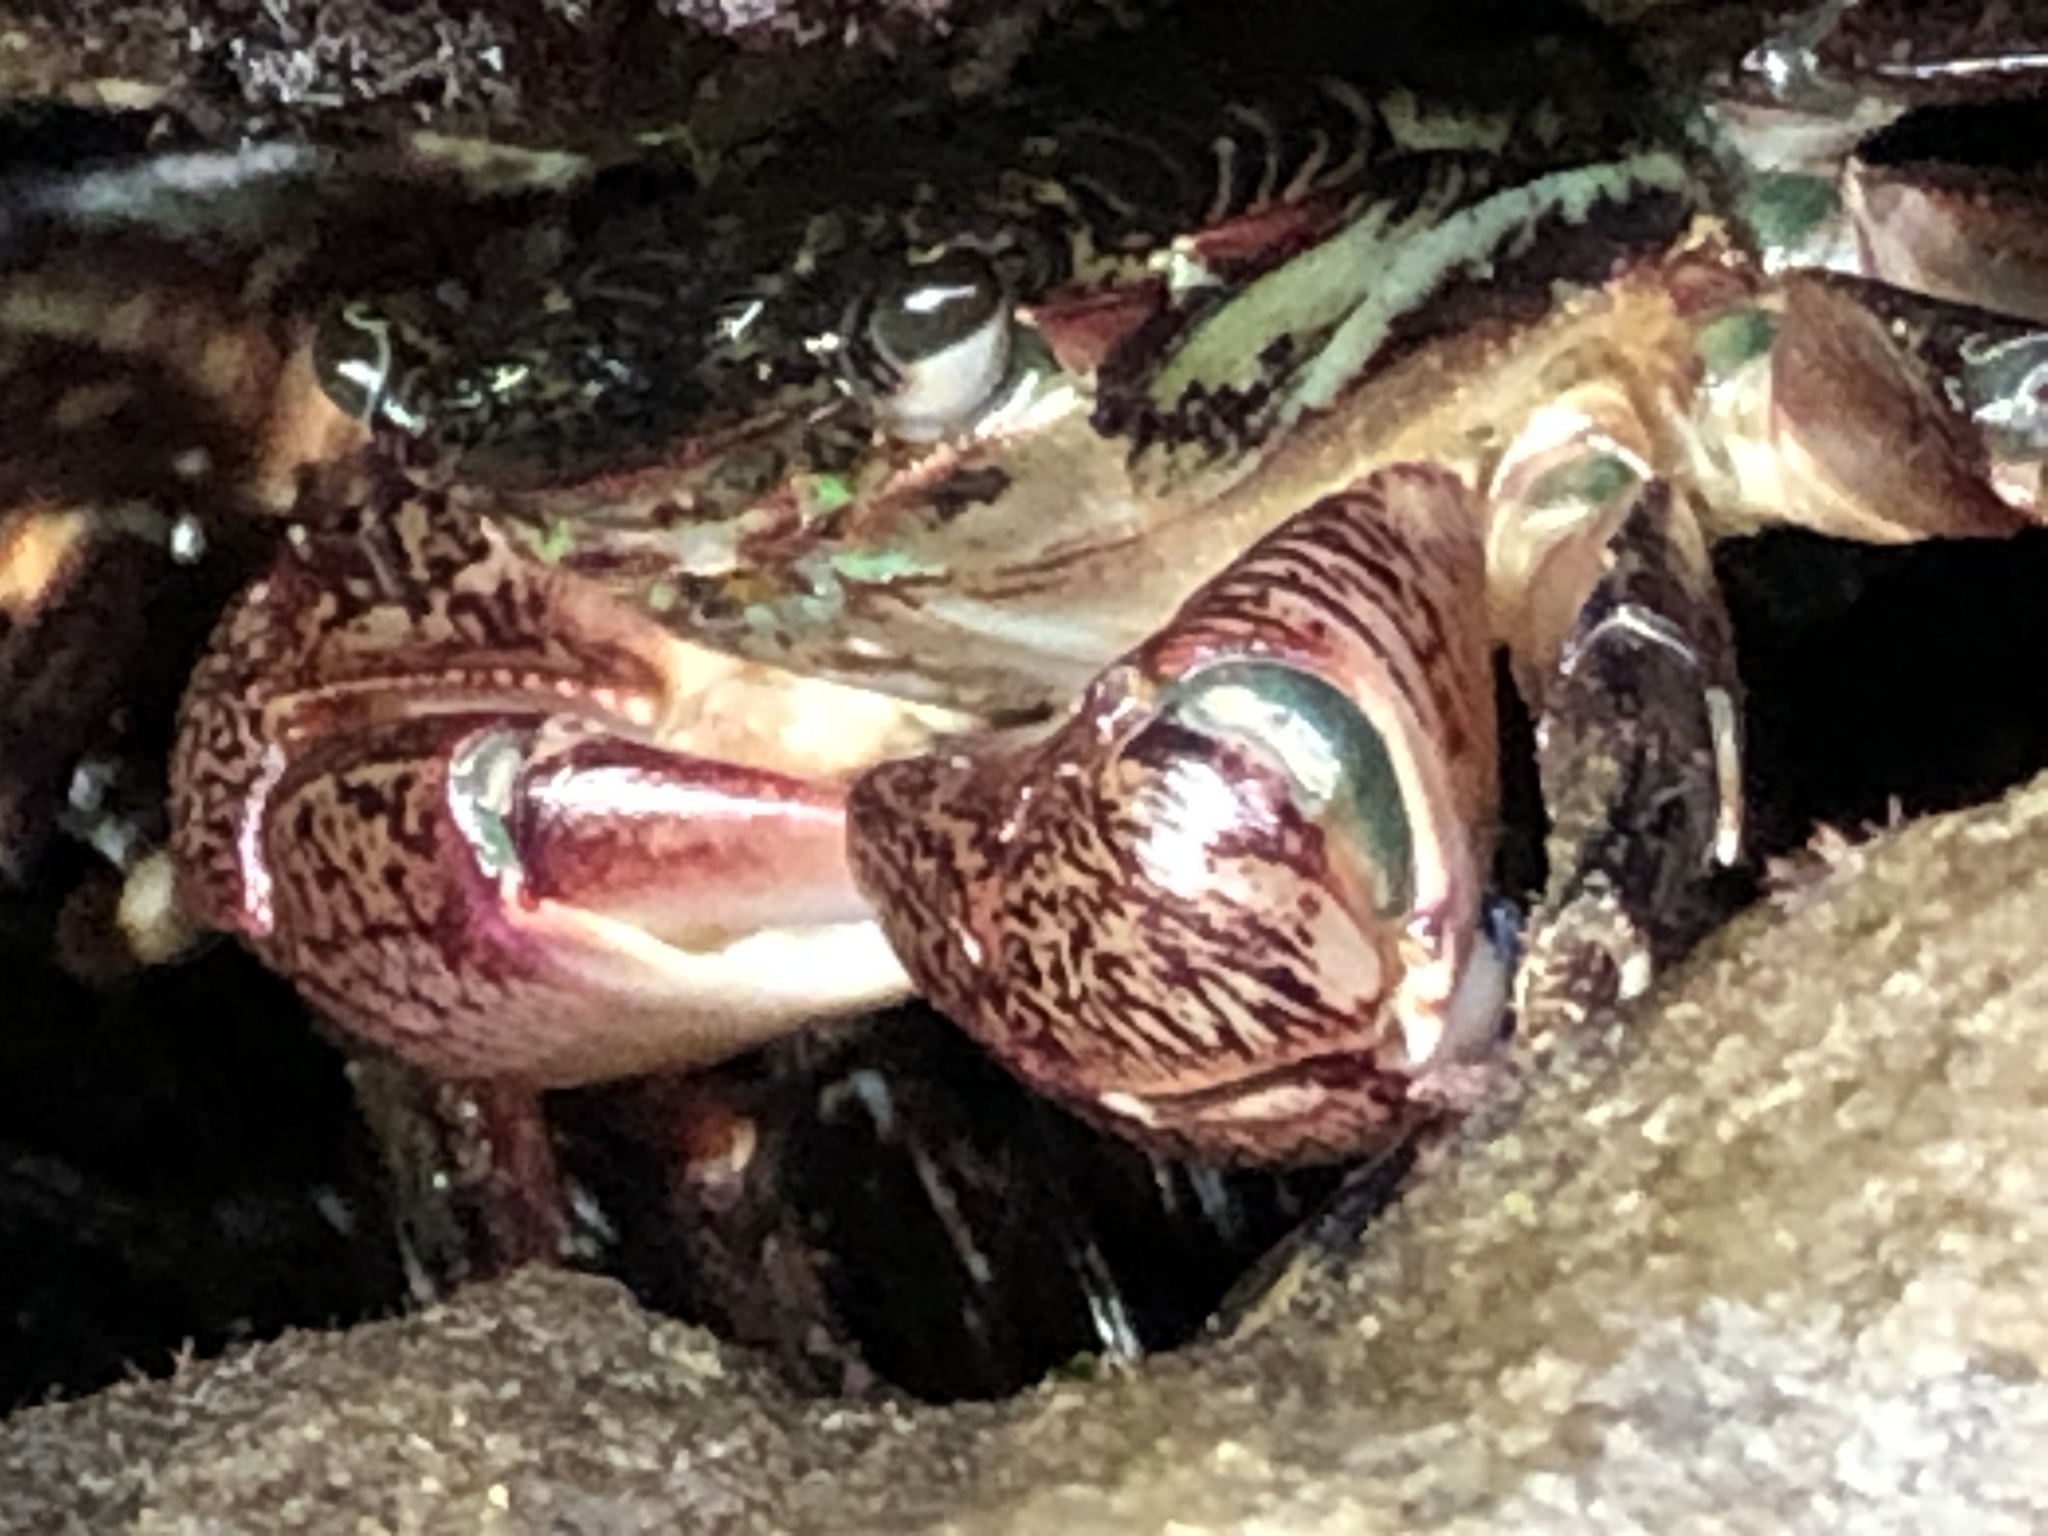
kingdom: Animalia
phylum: Arthropoda
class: Malacostraca
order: Decapoda
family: Grapsidae
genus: Pachygrapsus
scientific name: Pachygrapsus crassipes
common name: Striped shore crab
